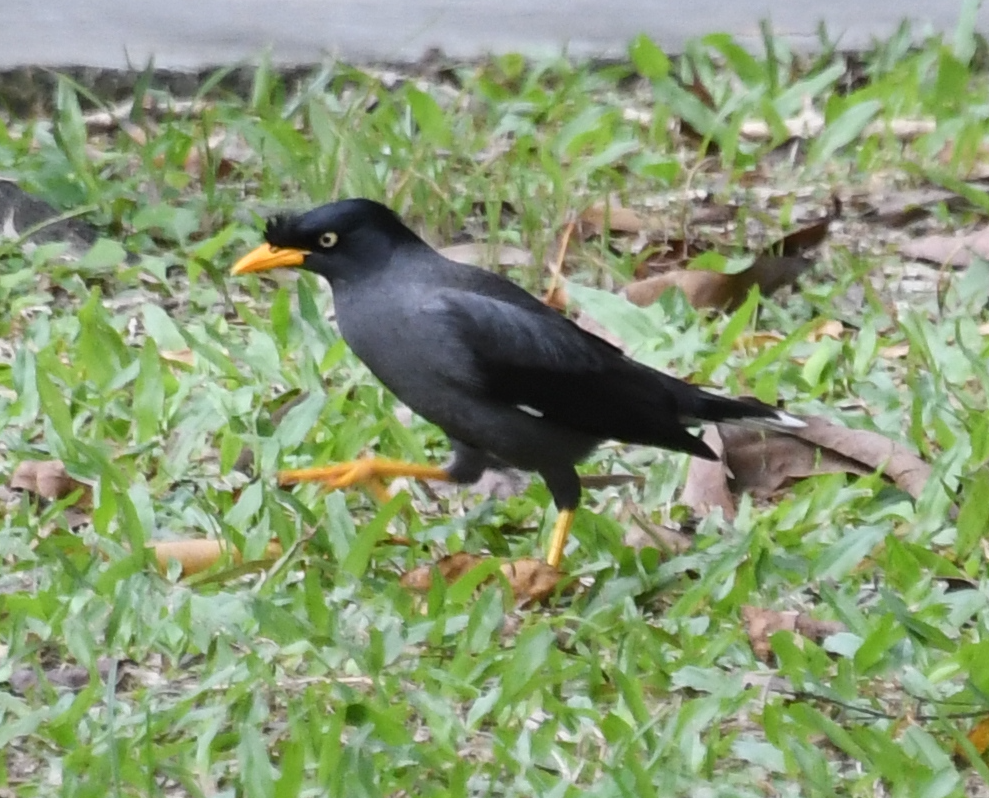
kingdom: Animalia
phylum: Chordata
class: Aves
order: Passeriformes
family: Sturnidae
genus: Acridotheres
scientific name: Acridotheres javanicus
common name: Javan myna
